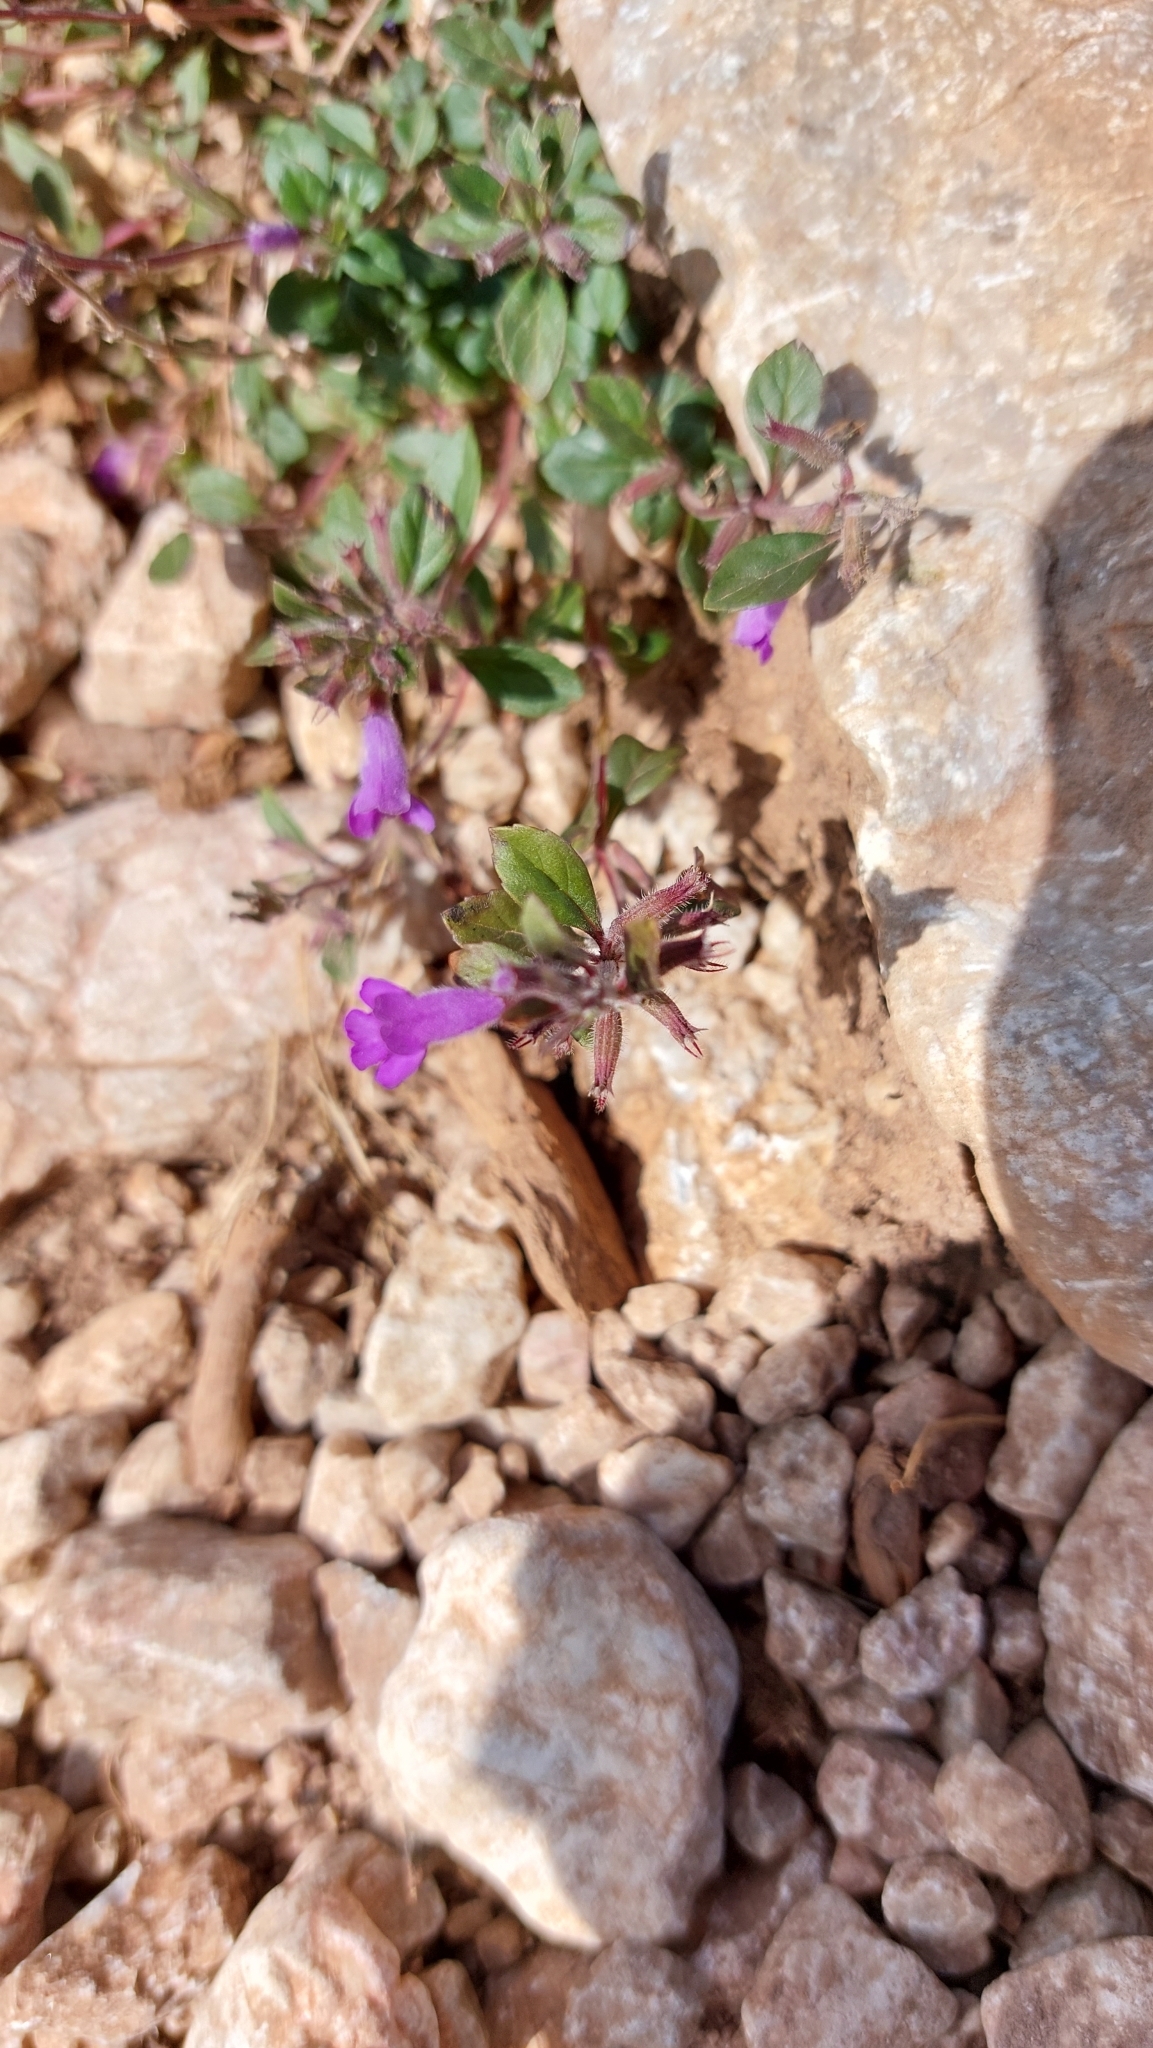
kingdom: Plantae
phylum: Tracheophyta
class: Magnoliopsida
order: Lamiales
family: Lamiaceae
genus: Clinopodium
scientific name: Clinopodium alpinum
